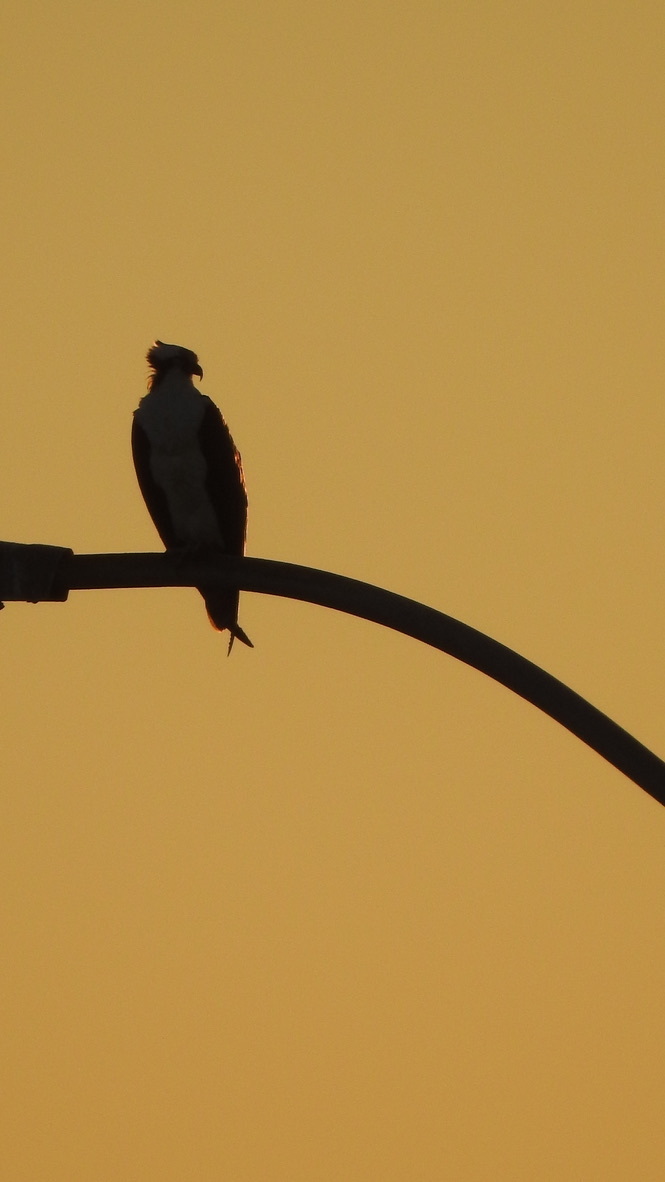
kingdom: Animalia
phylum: Chordata
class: Aves
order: Accipitriformes
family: Pandionidae
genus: Pandion
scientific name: Pandion haliaetus
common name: Osprey
